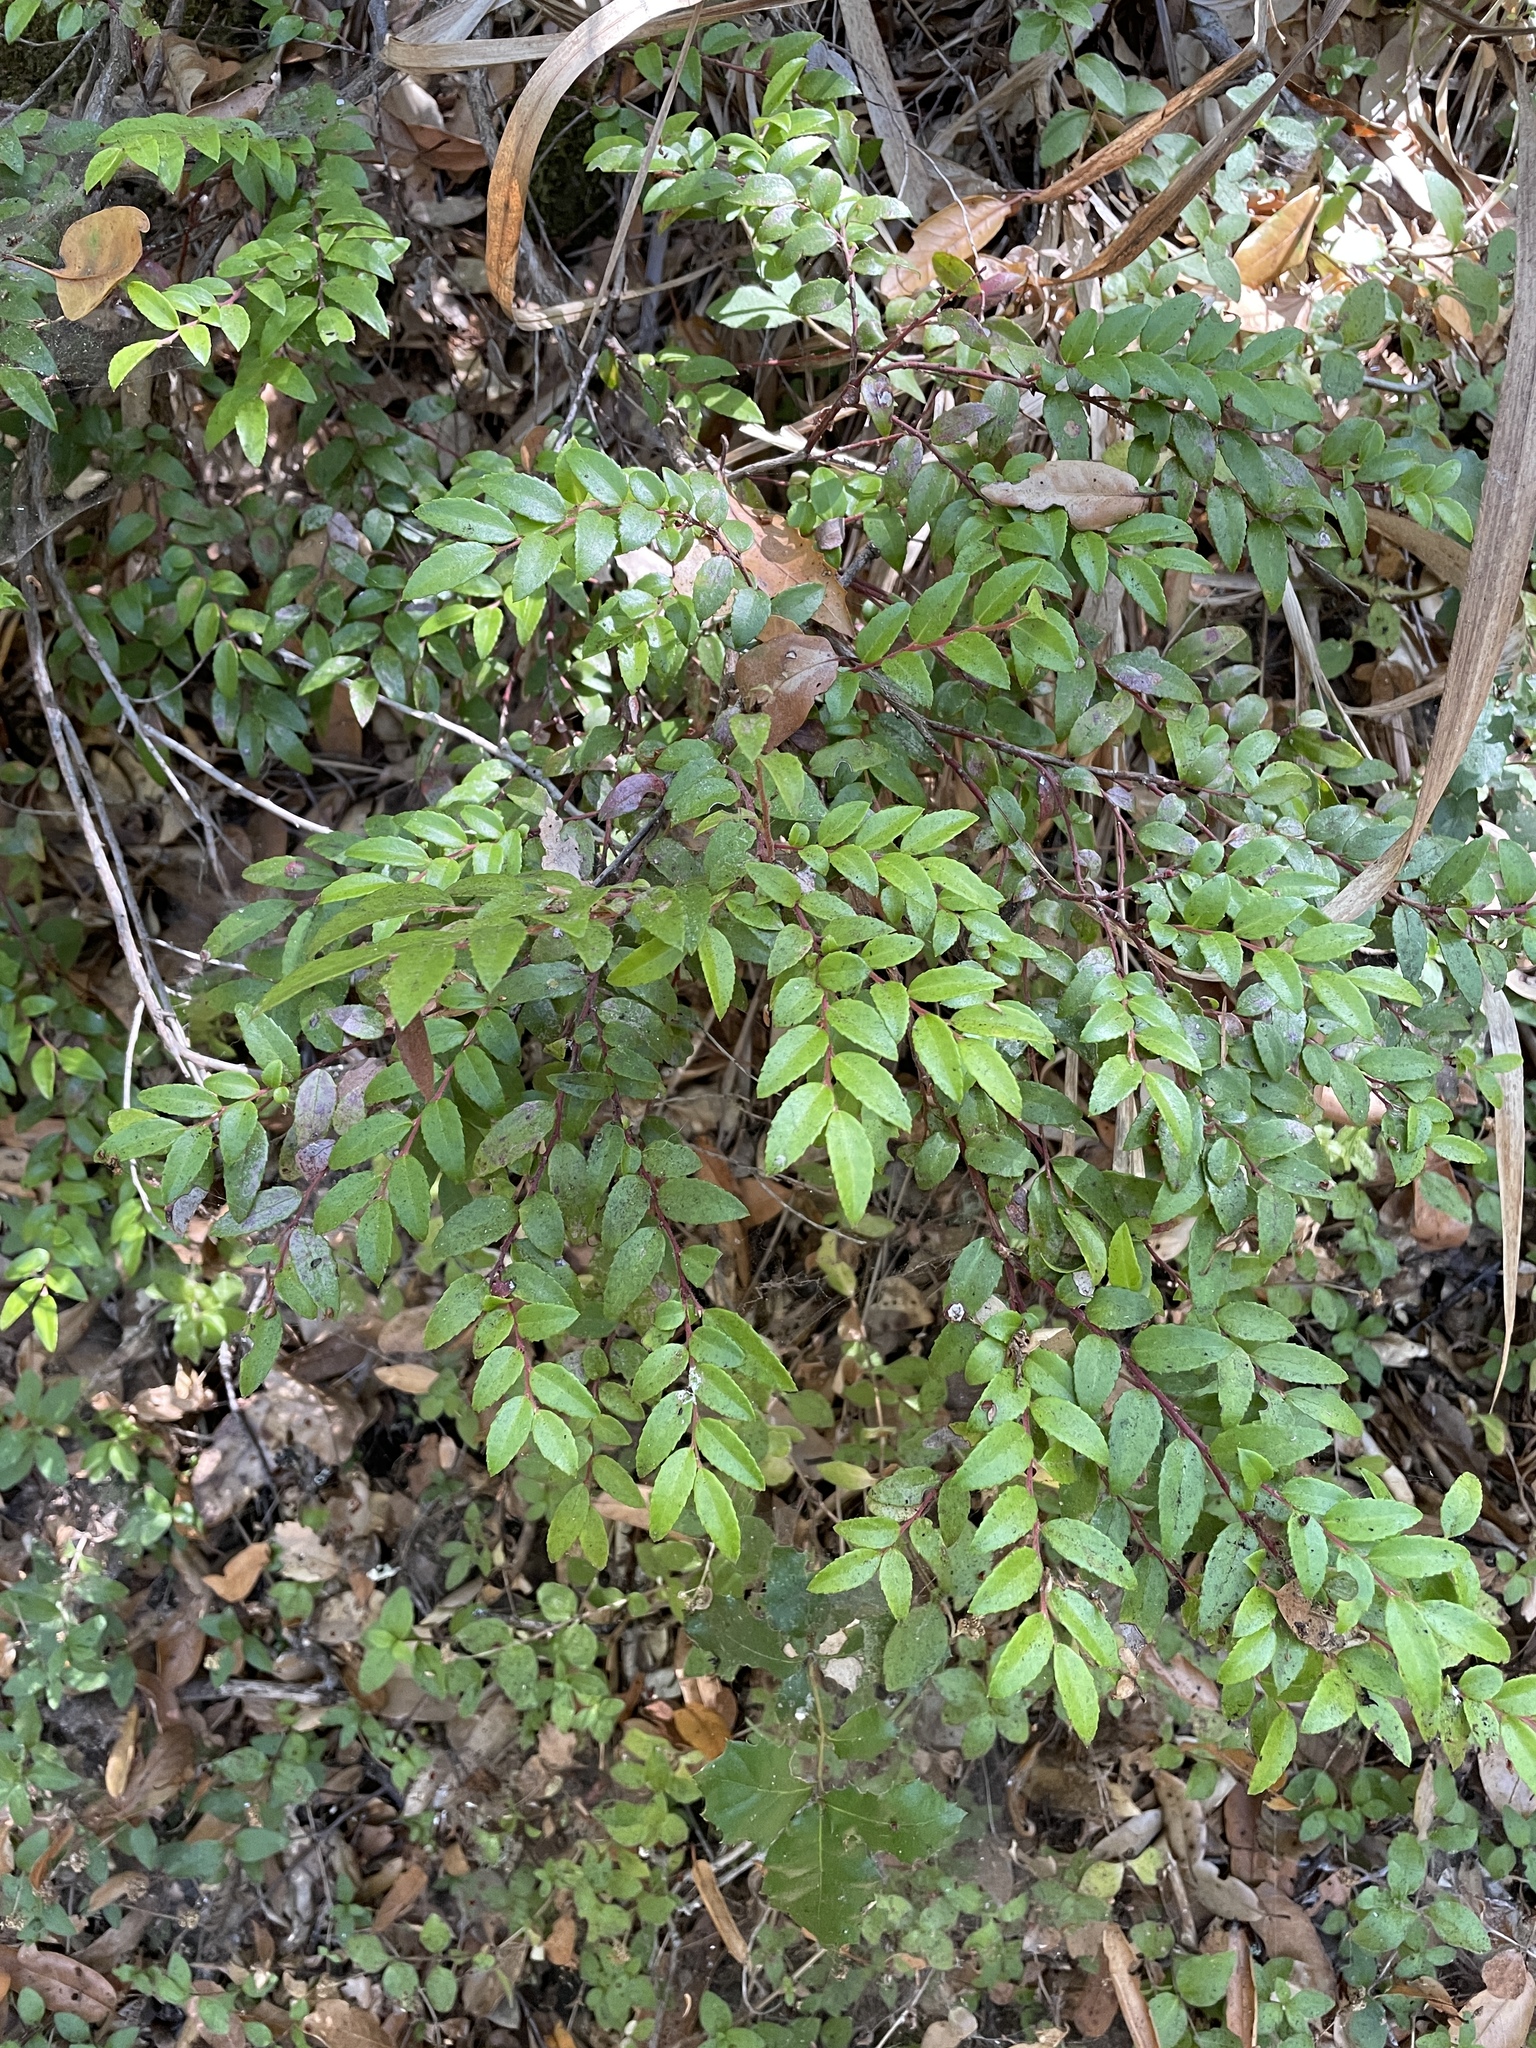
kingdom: Plantae
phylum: Tracheophyta
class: Magnoliopsida
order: Ericales
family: Ericaceae
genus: Vaccinium
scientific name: Vaccinium ovatum
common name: California-huckleberry
